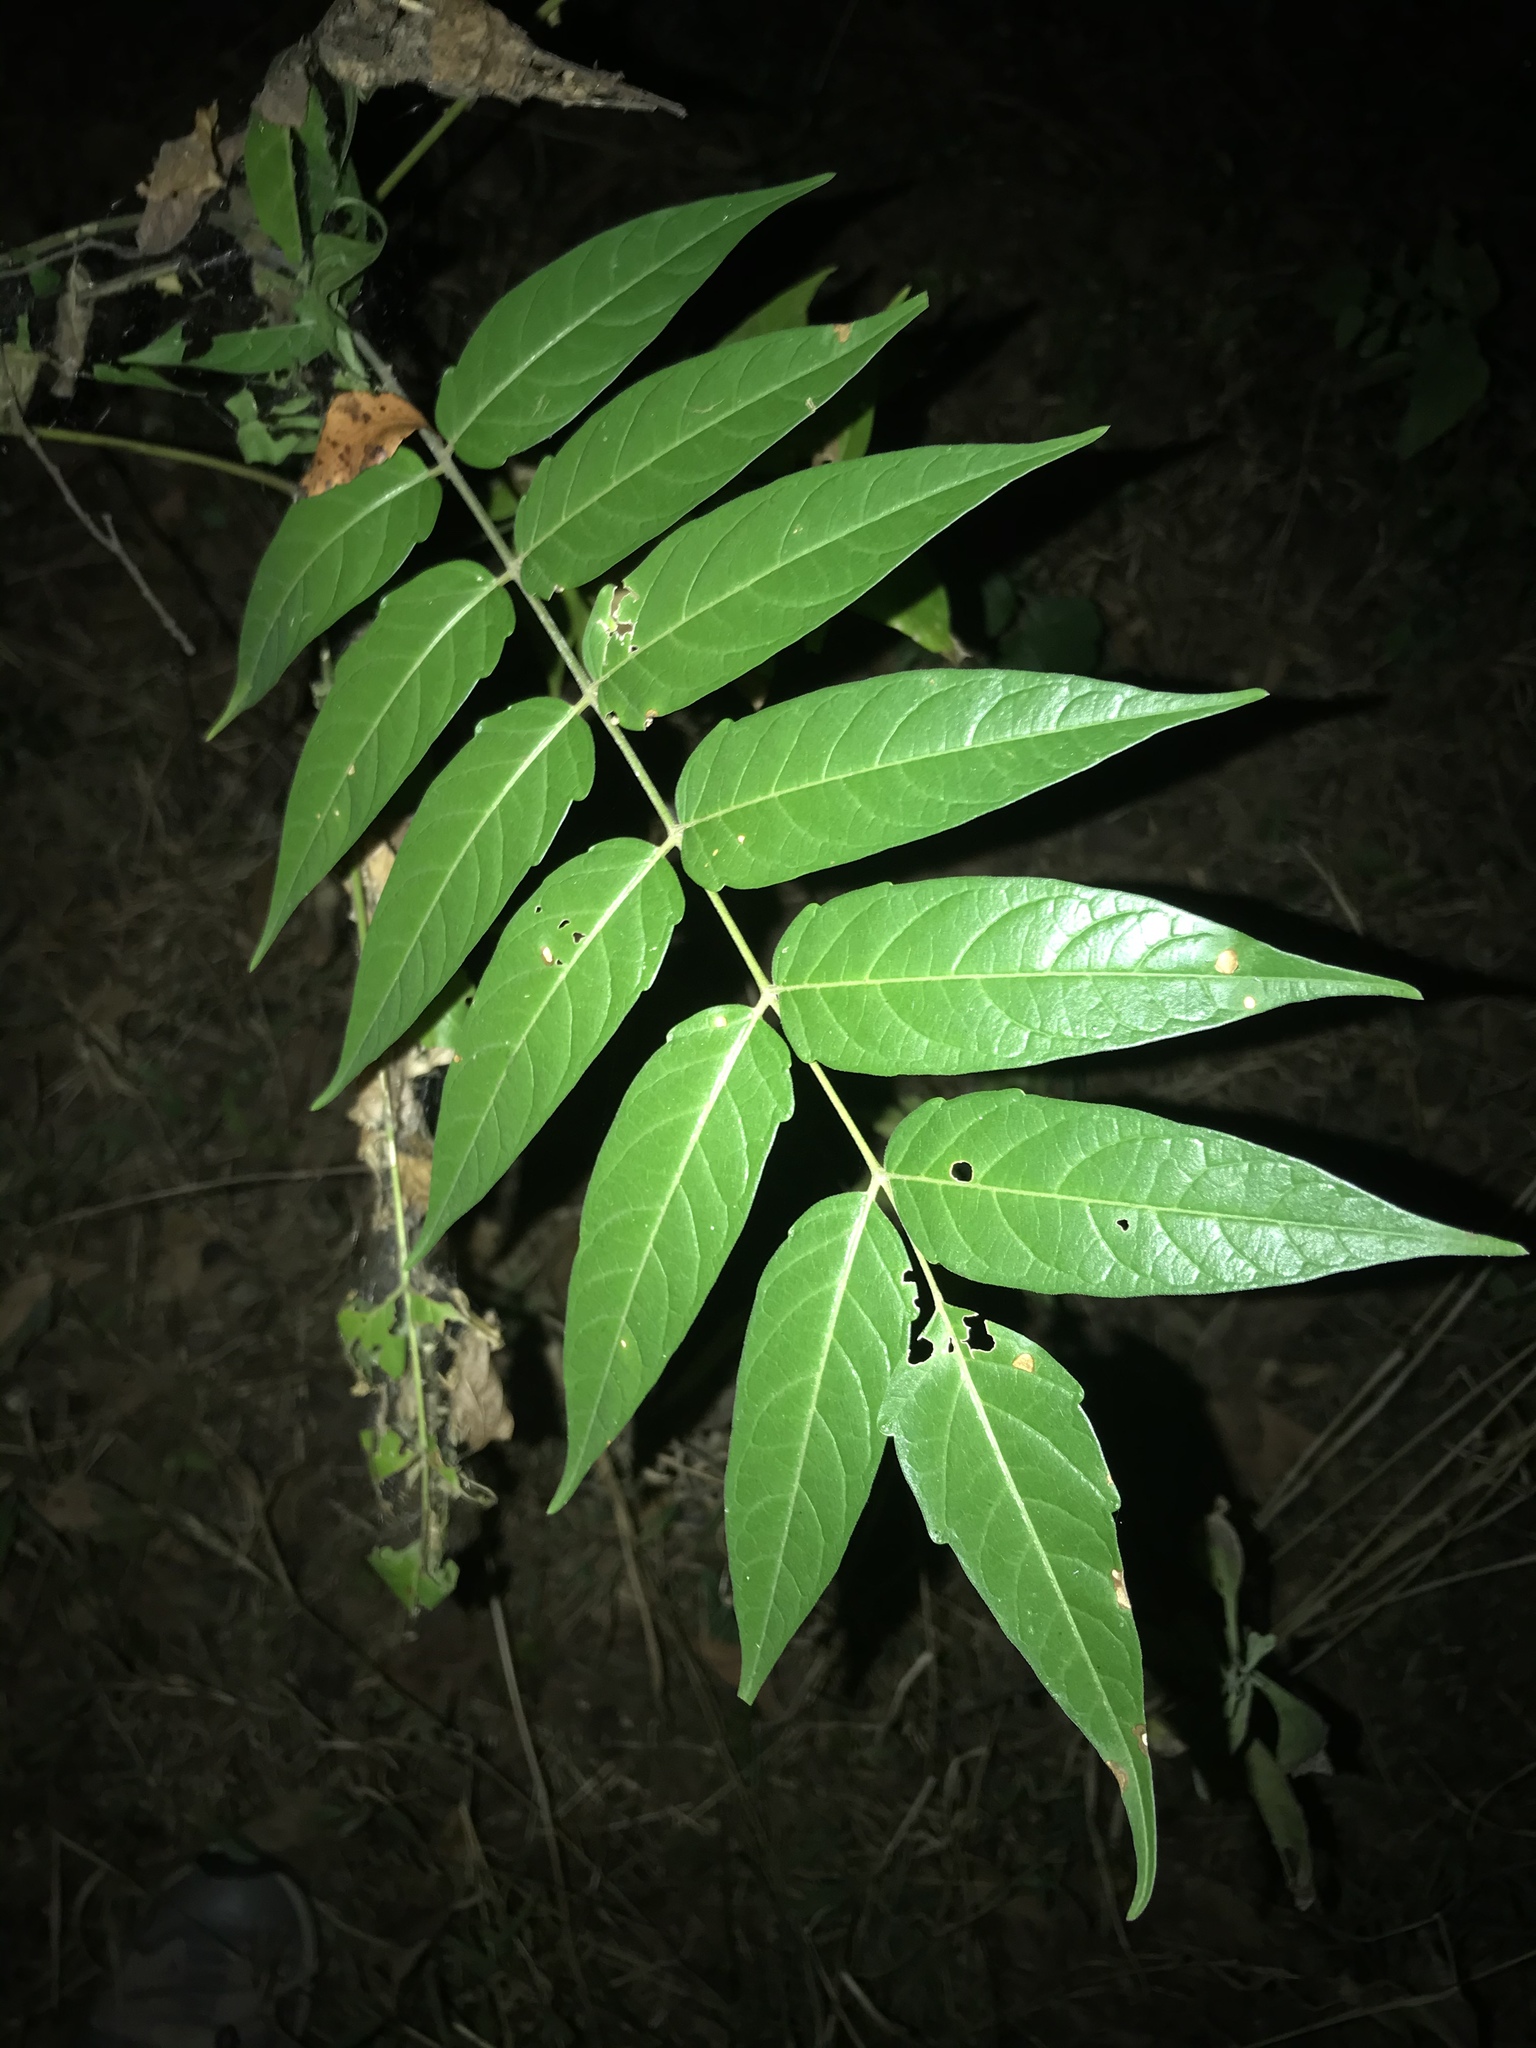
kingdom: Plantae
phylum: Tracheophyta
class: Magnoliopsida
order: Sapindales
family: Simaroubaceae
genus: Ailanthus
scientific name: Ailanthus altissima
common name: Tree-of-heaven
